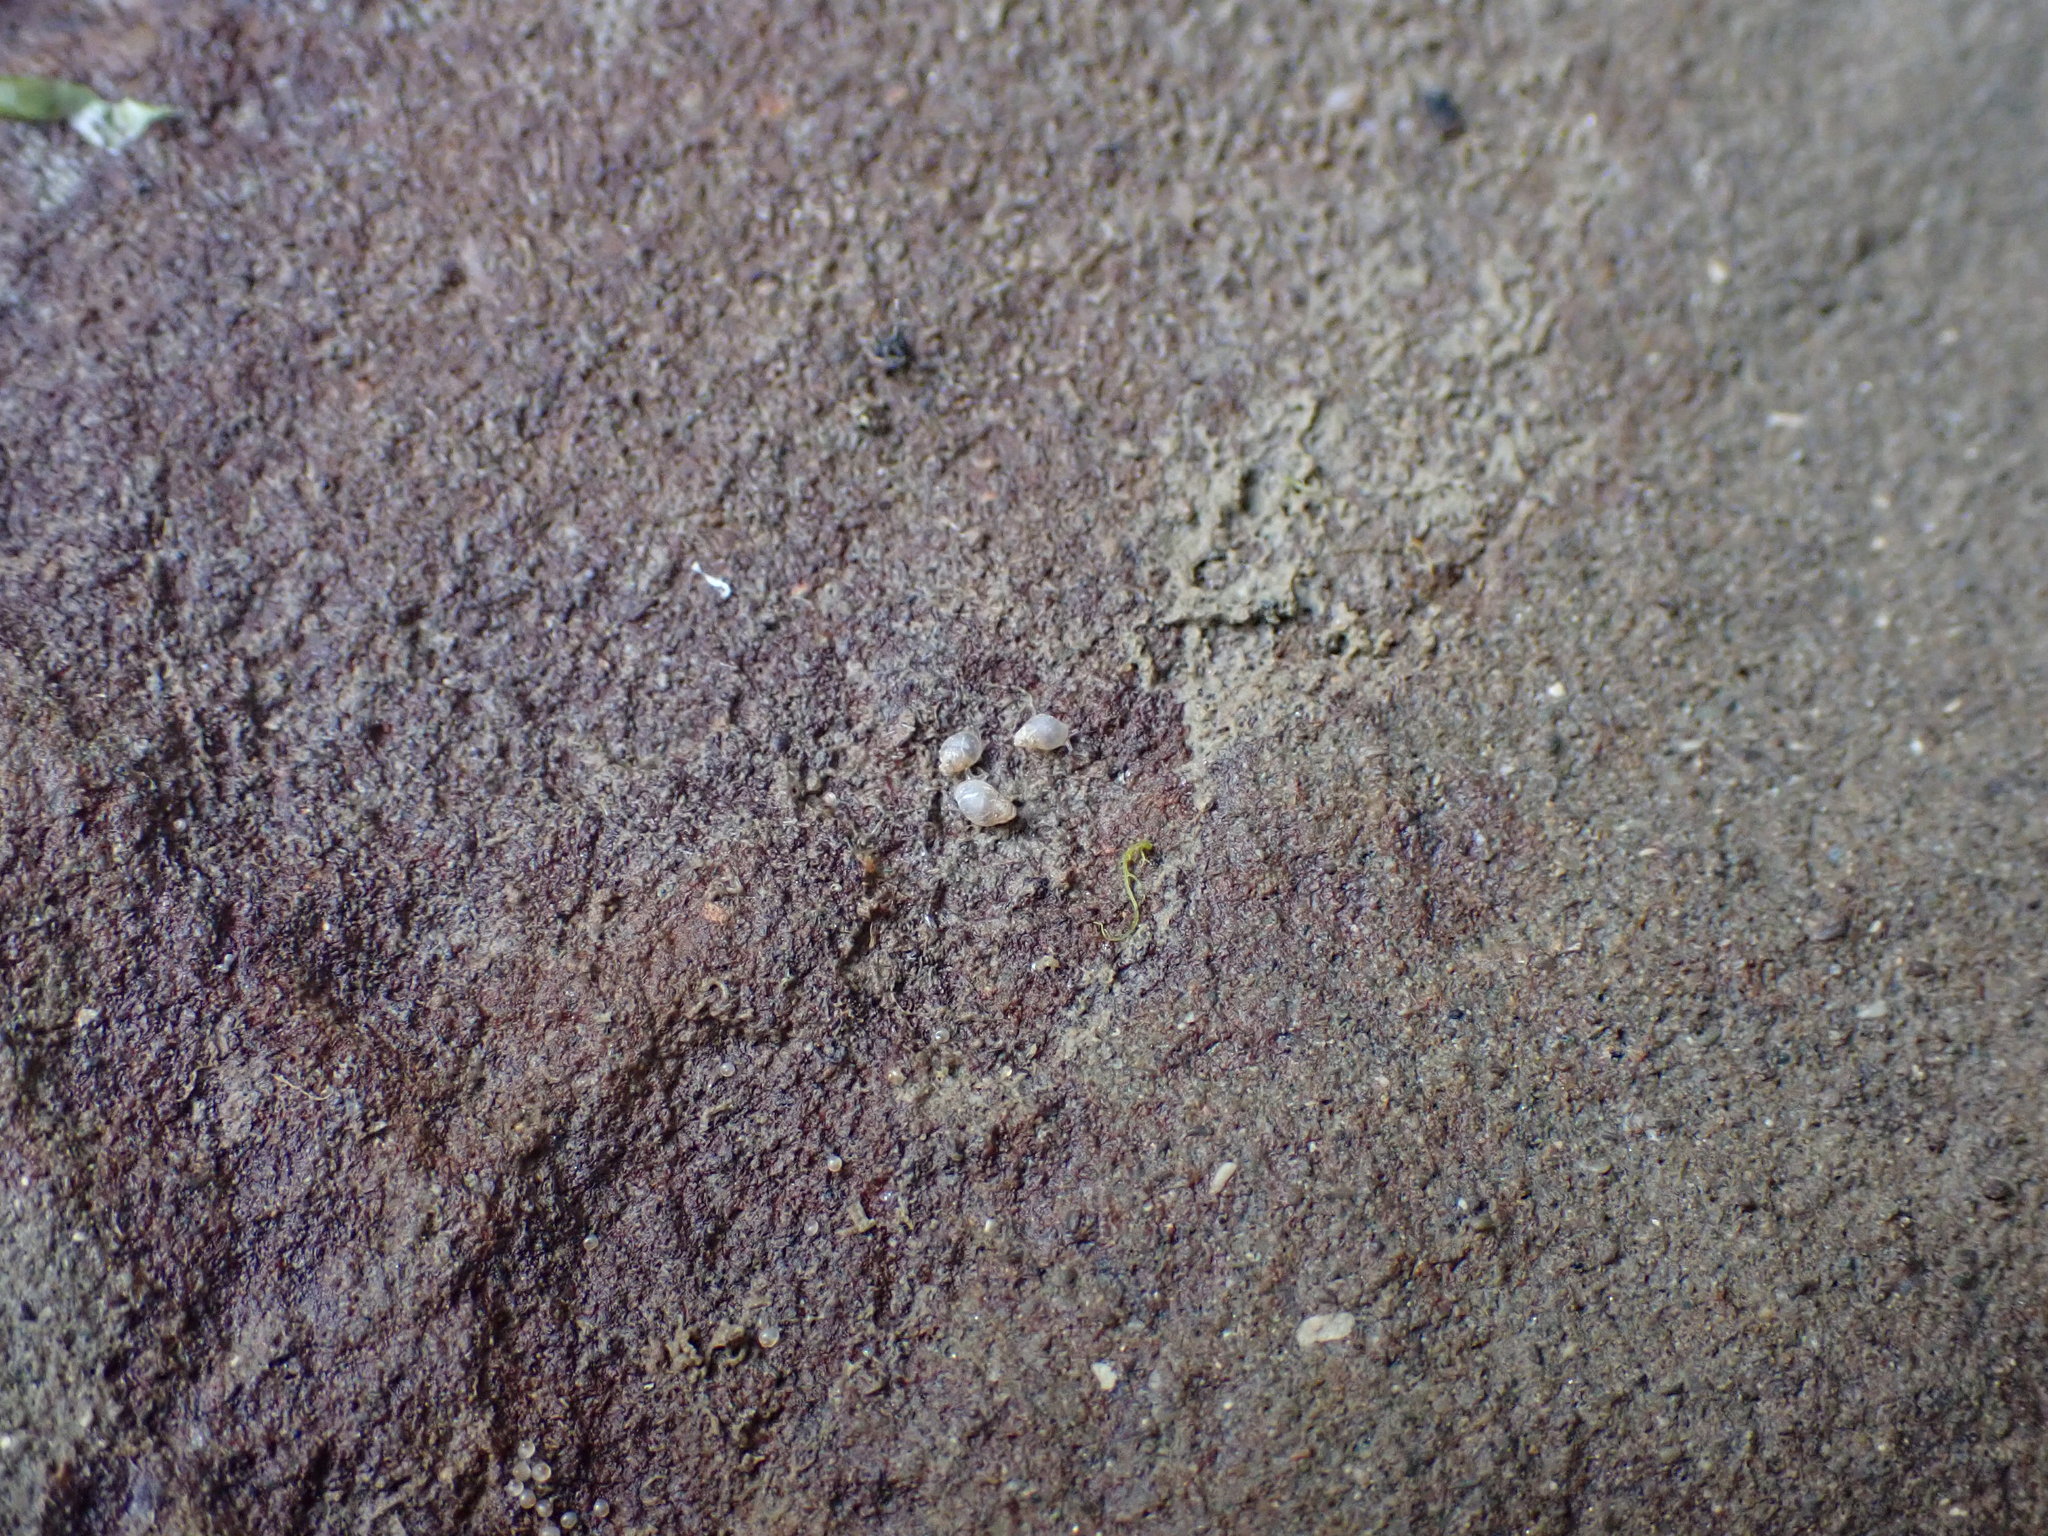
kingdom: Animalia
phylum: Mollusca
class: Gastropoda
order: Ellobiida
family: Ellobiidae
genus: Leuconopsis
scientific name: Leuconopsis obsoleta
